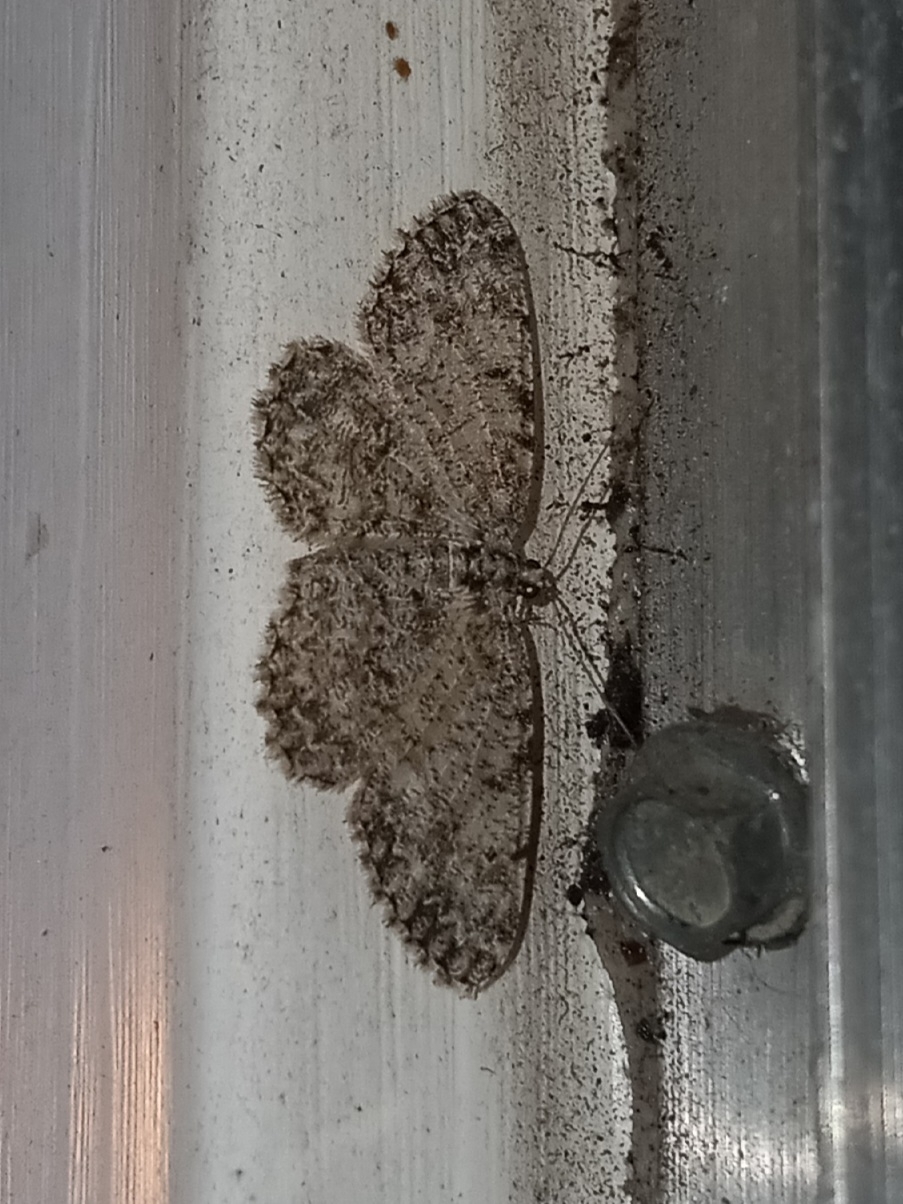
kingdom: Animalia
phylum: Arthropoda
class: Insecta
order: Lepidoptera
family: Geometridae
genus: Protoboarmia
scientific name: Protoboarmia porcelaria
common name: Porcelain gray
